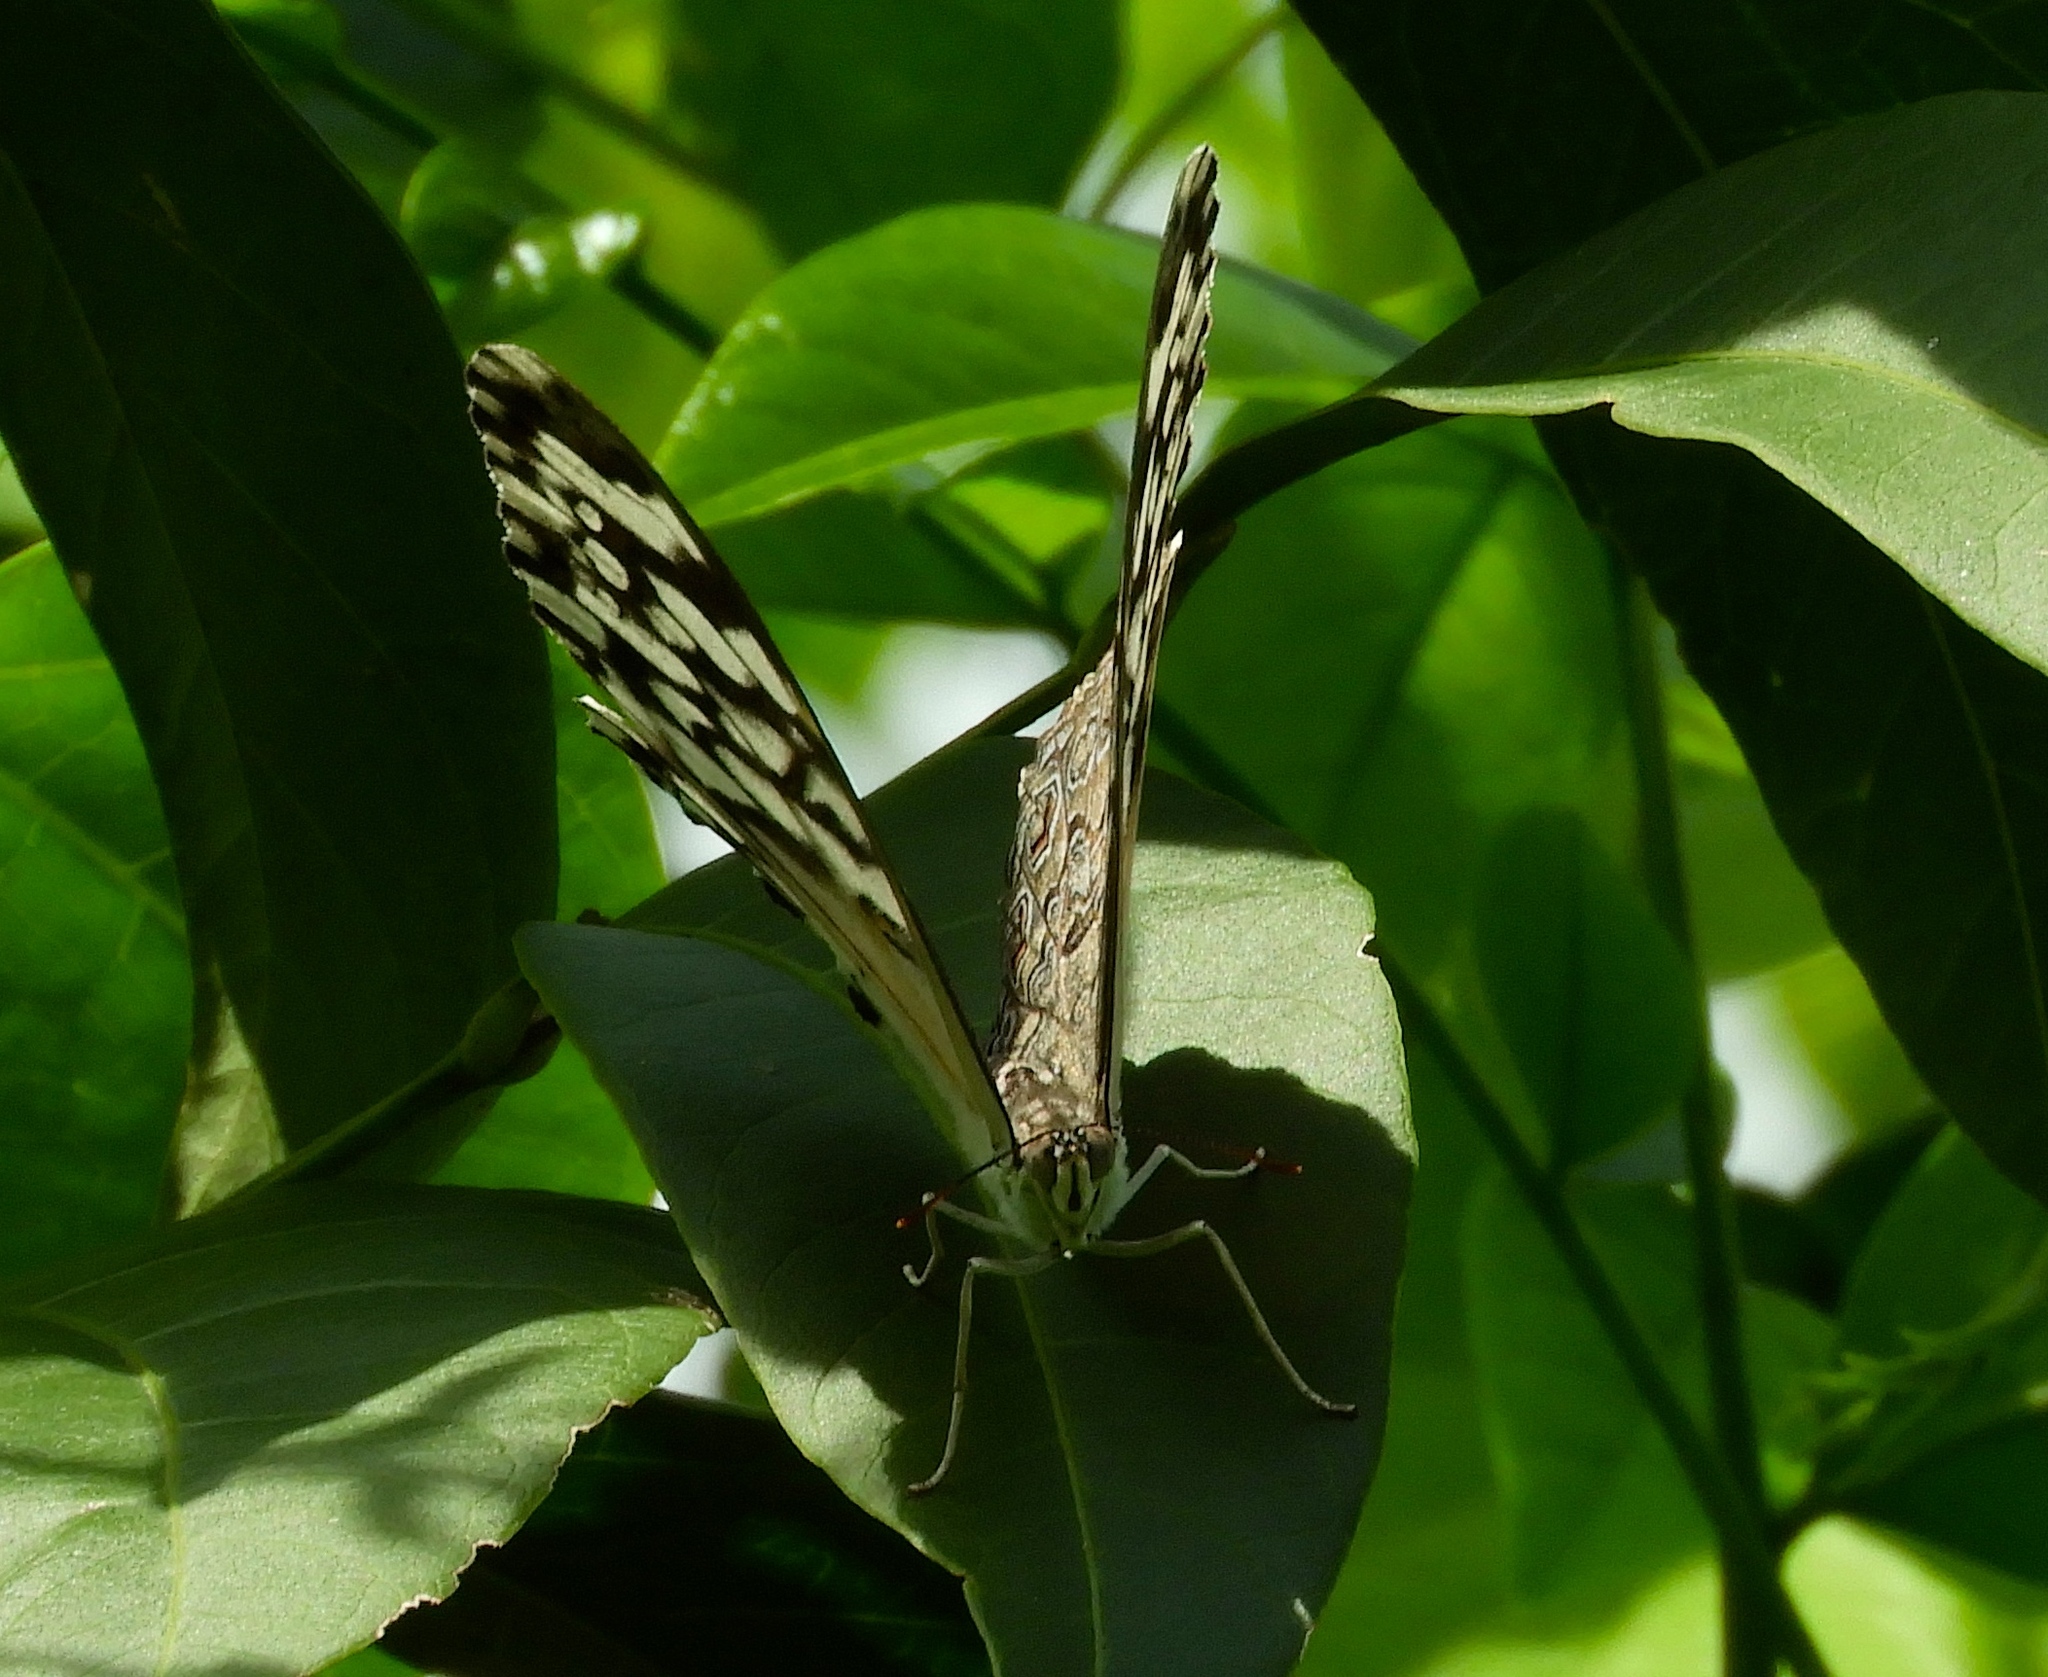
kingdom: Animalia
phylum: Arthropoda
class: Insecta
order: Lepidoptera
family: Nymphalidae
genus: Hamadryas
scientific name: Hamadryas februa
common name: Gray cracker
